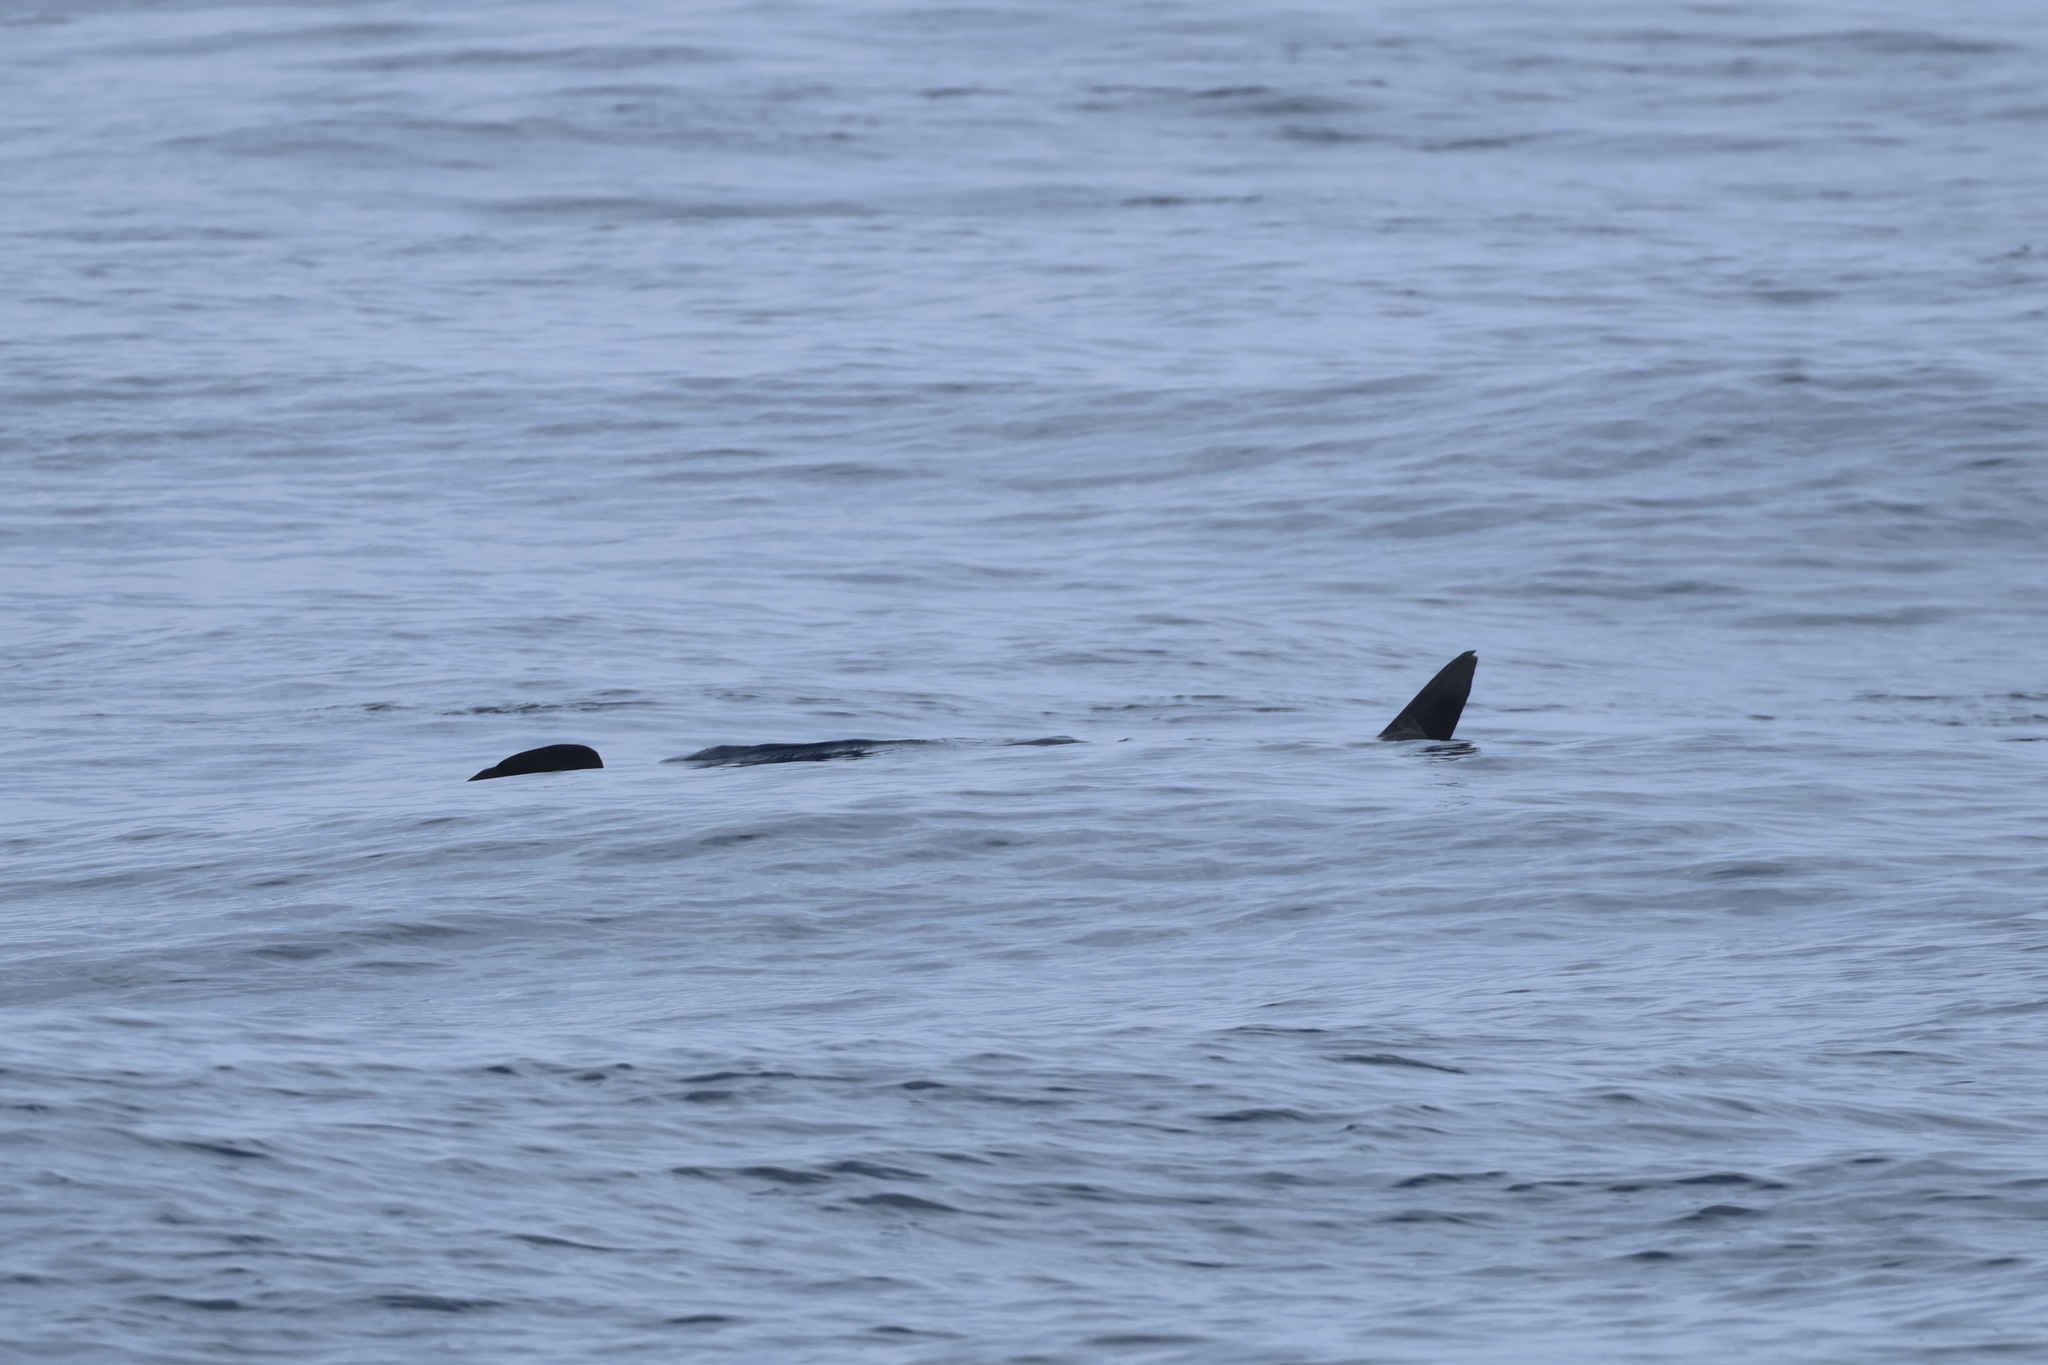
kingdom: Animalia
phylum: Chordata
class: Elasmobranchii
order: Orectolobiformes
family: Rhincodontidae
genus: Rhincodon
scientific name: Rhincodon typus
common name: Whale shark
